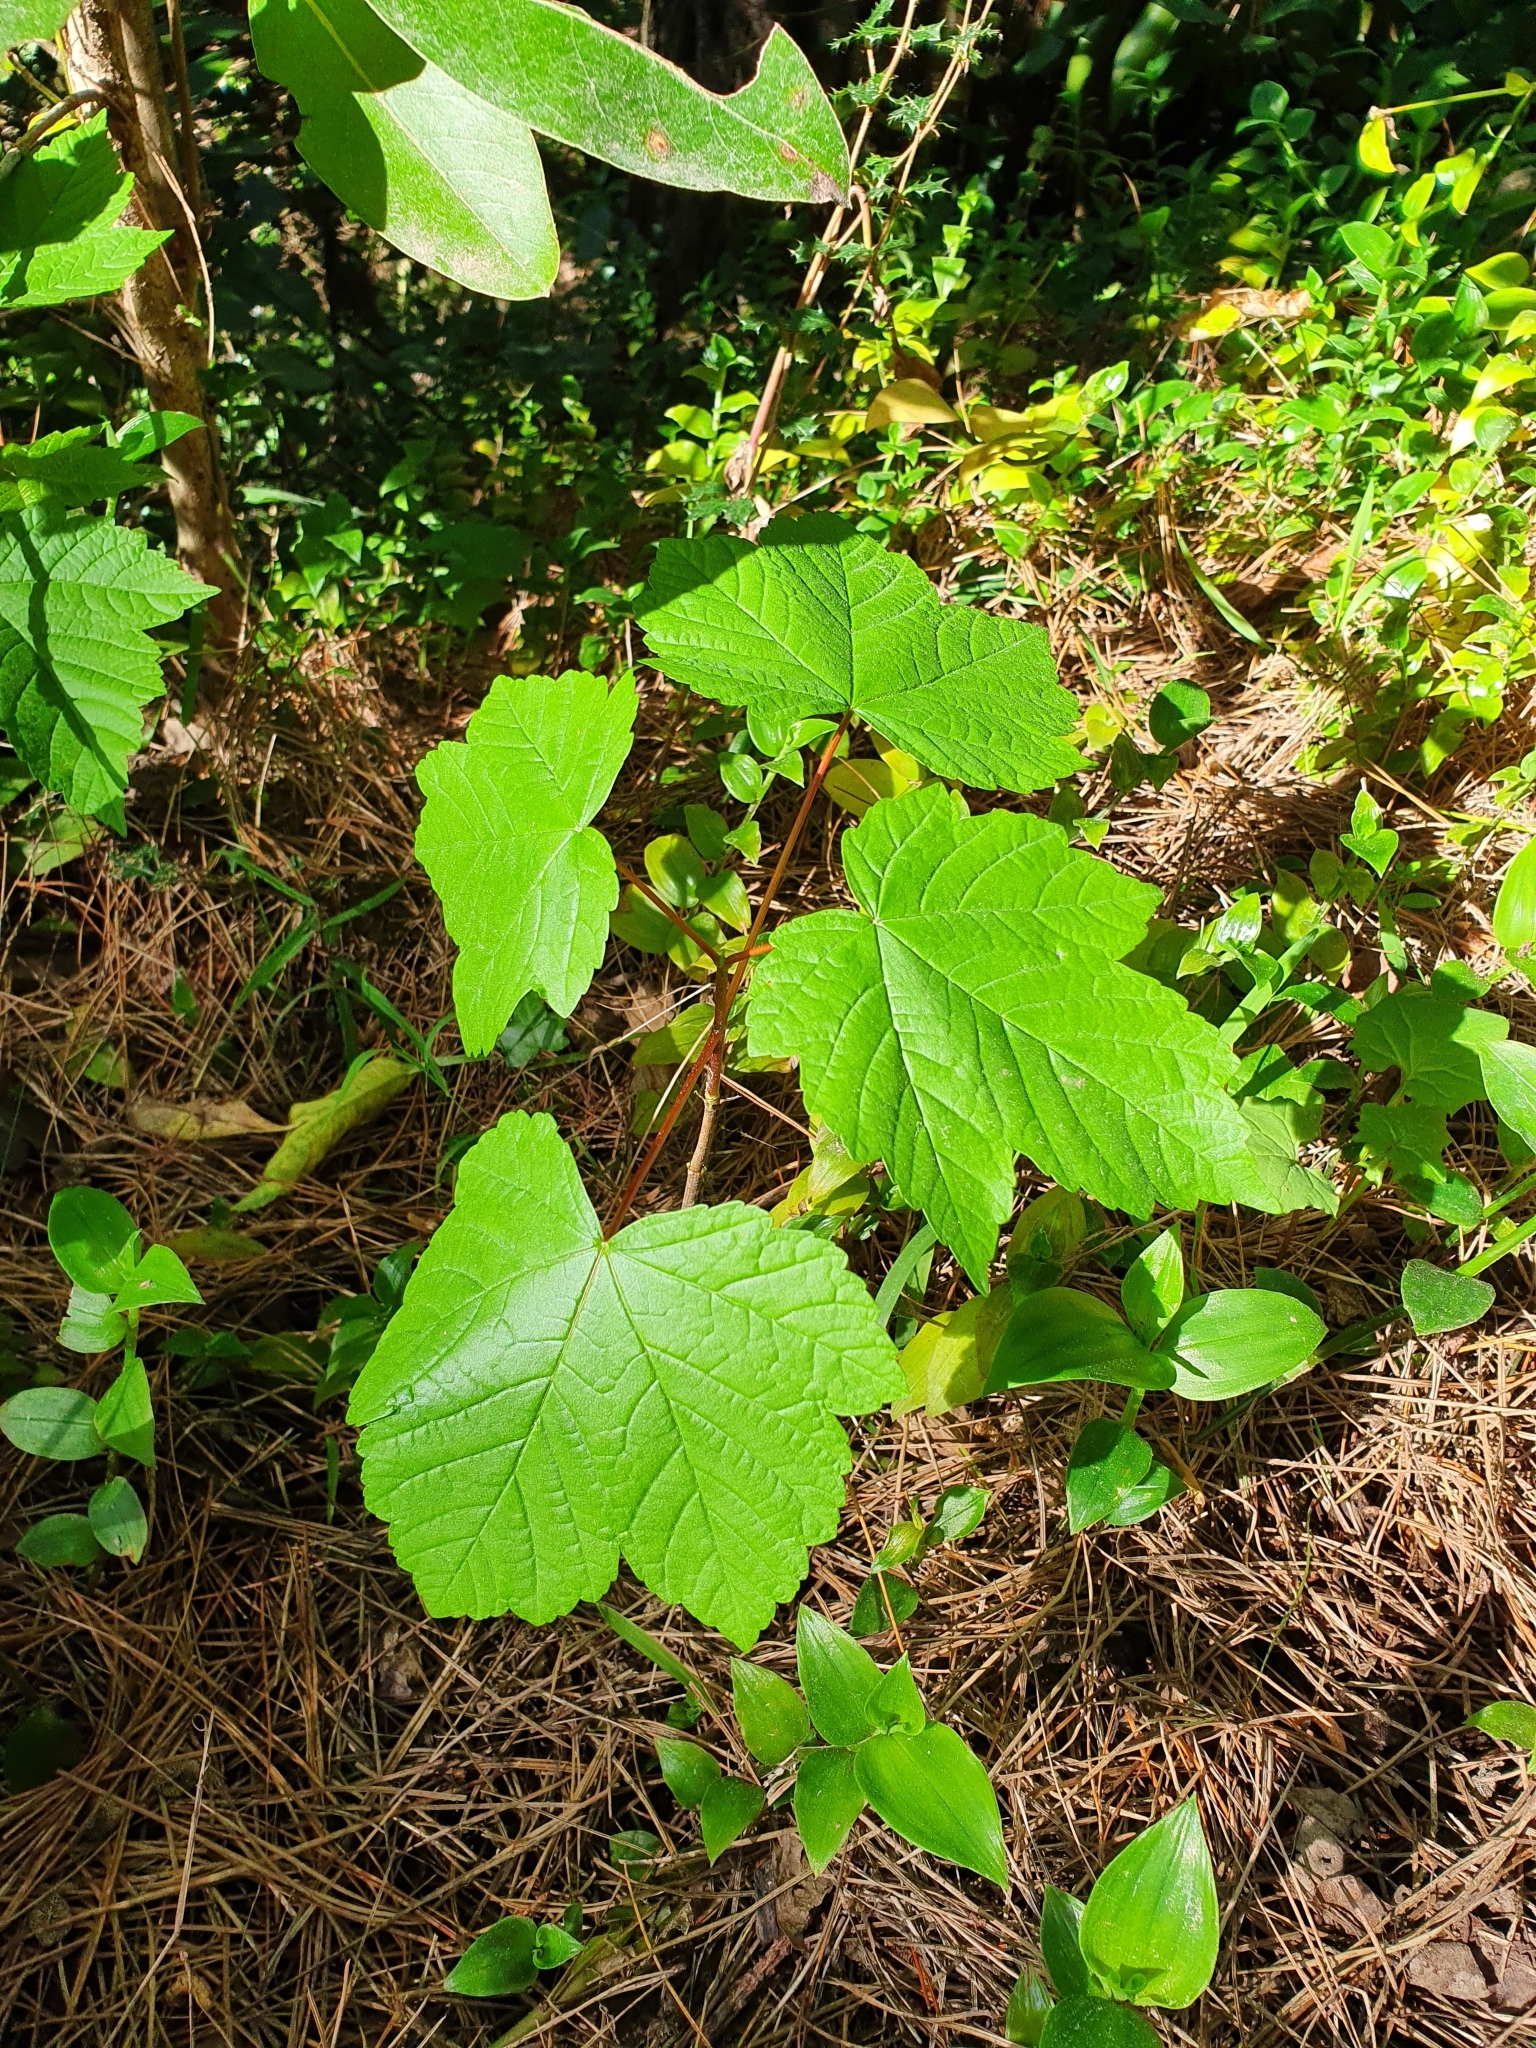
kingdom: Plantae
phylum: Tracheophyta
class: Magnoliopsida
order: Sapindales
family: Sapindaceae
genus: Acer
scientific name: Acer pseudoplatanus
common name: Sycamore
